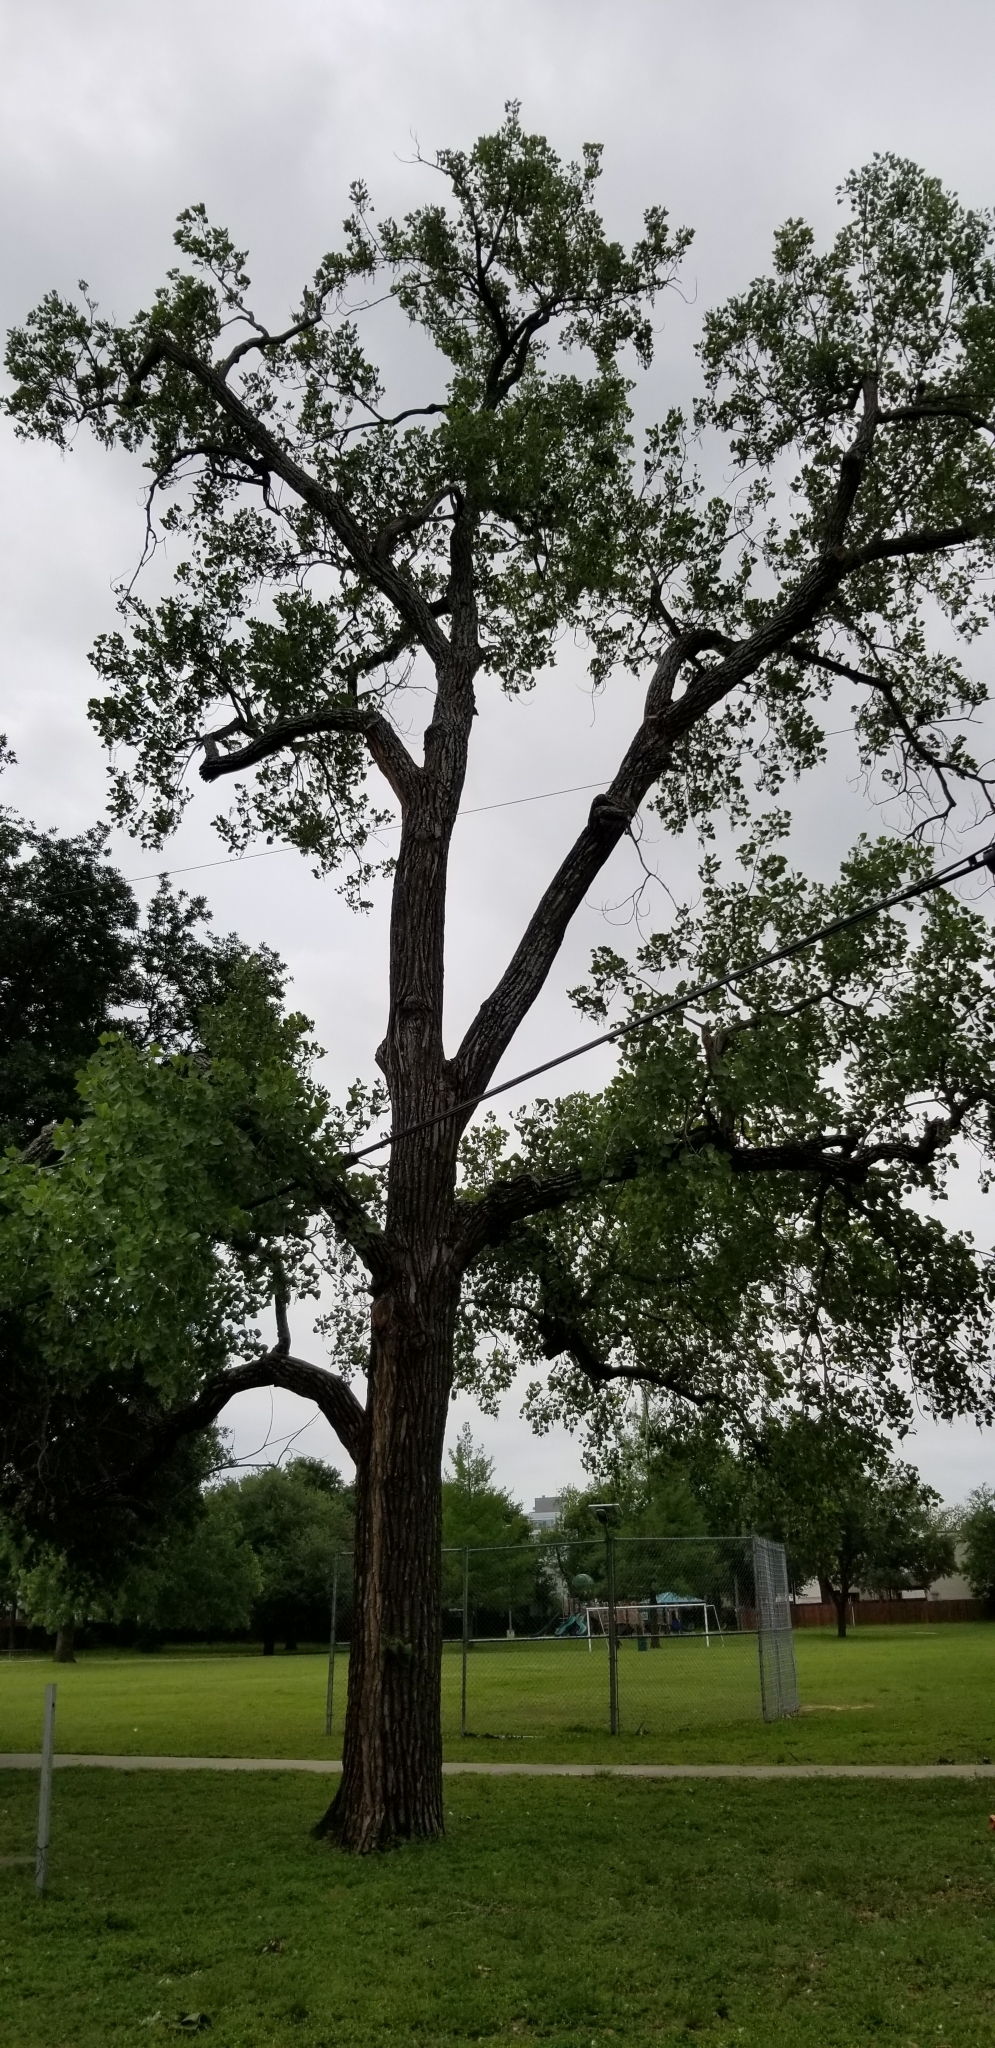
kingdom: Plantae
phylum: Tracheophyta
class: Magnoliopsida
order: Malpighiales
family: Salicaceae
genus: Populus
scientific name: Populus deltoides
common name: Eastern cottonwood
